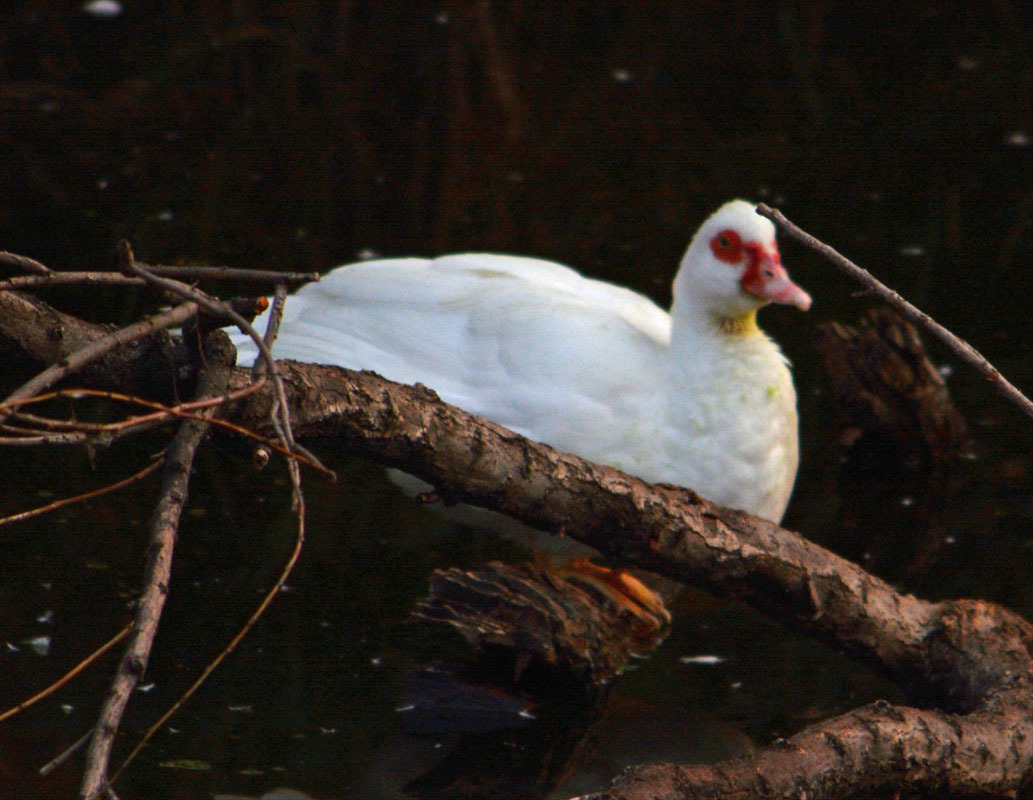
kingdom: Animalia
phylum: Chordata
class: Aves
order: Anseriformes
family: Anatidae
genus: Cairina
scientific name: Cairina moschata
